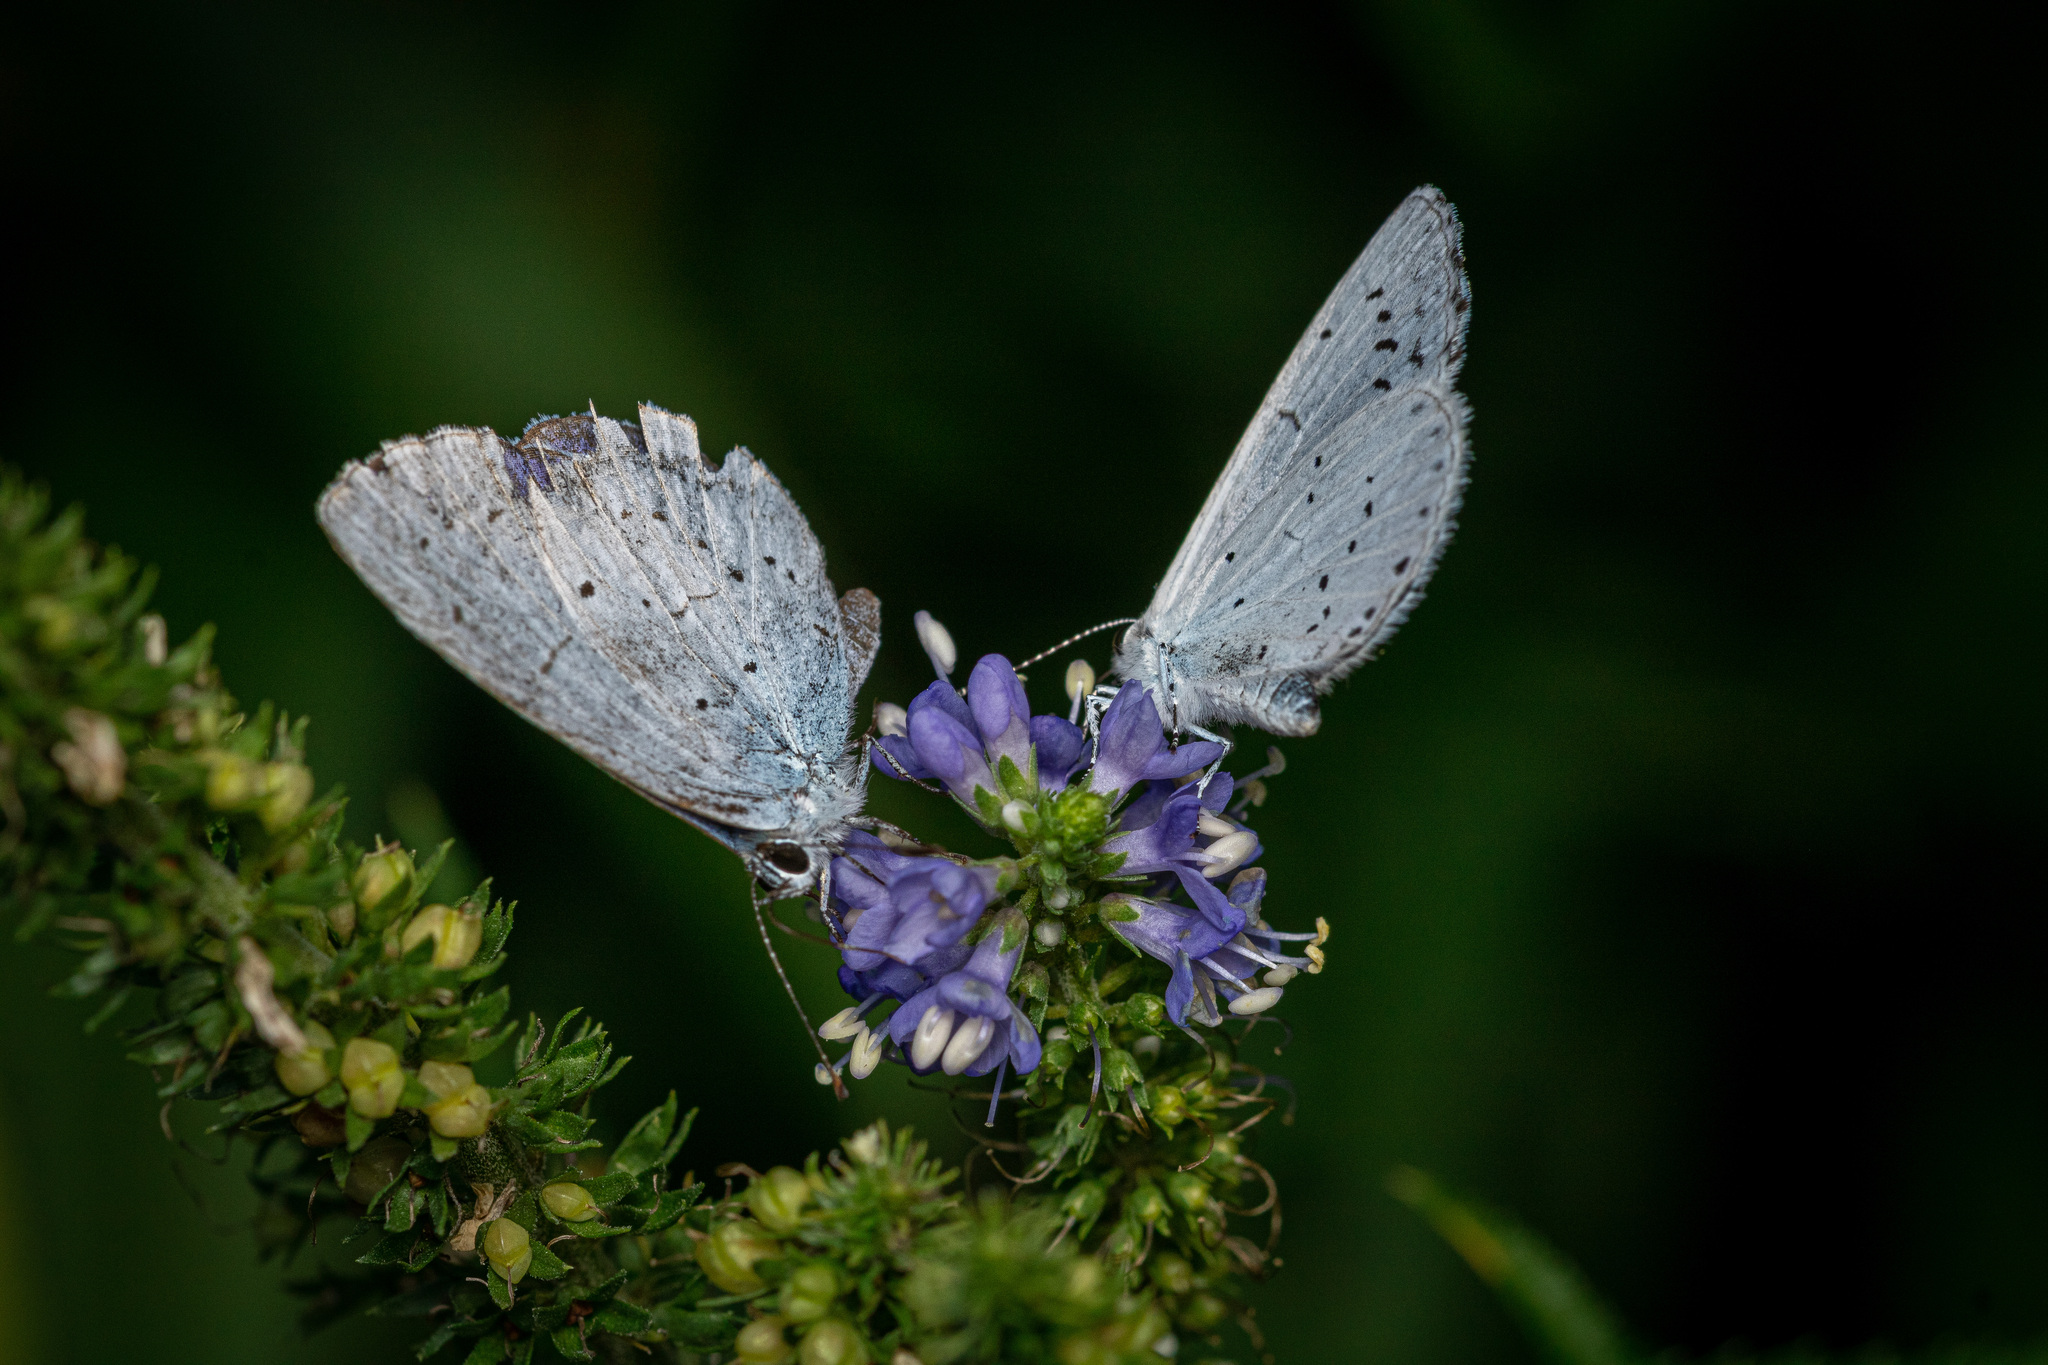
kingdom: Animalia
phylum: Arthropoda
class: Insecta
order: Lepidoptera
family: Lycaenidae
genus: Celastrina
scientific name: Celastrina argiolus
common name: Holly blue
